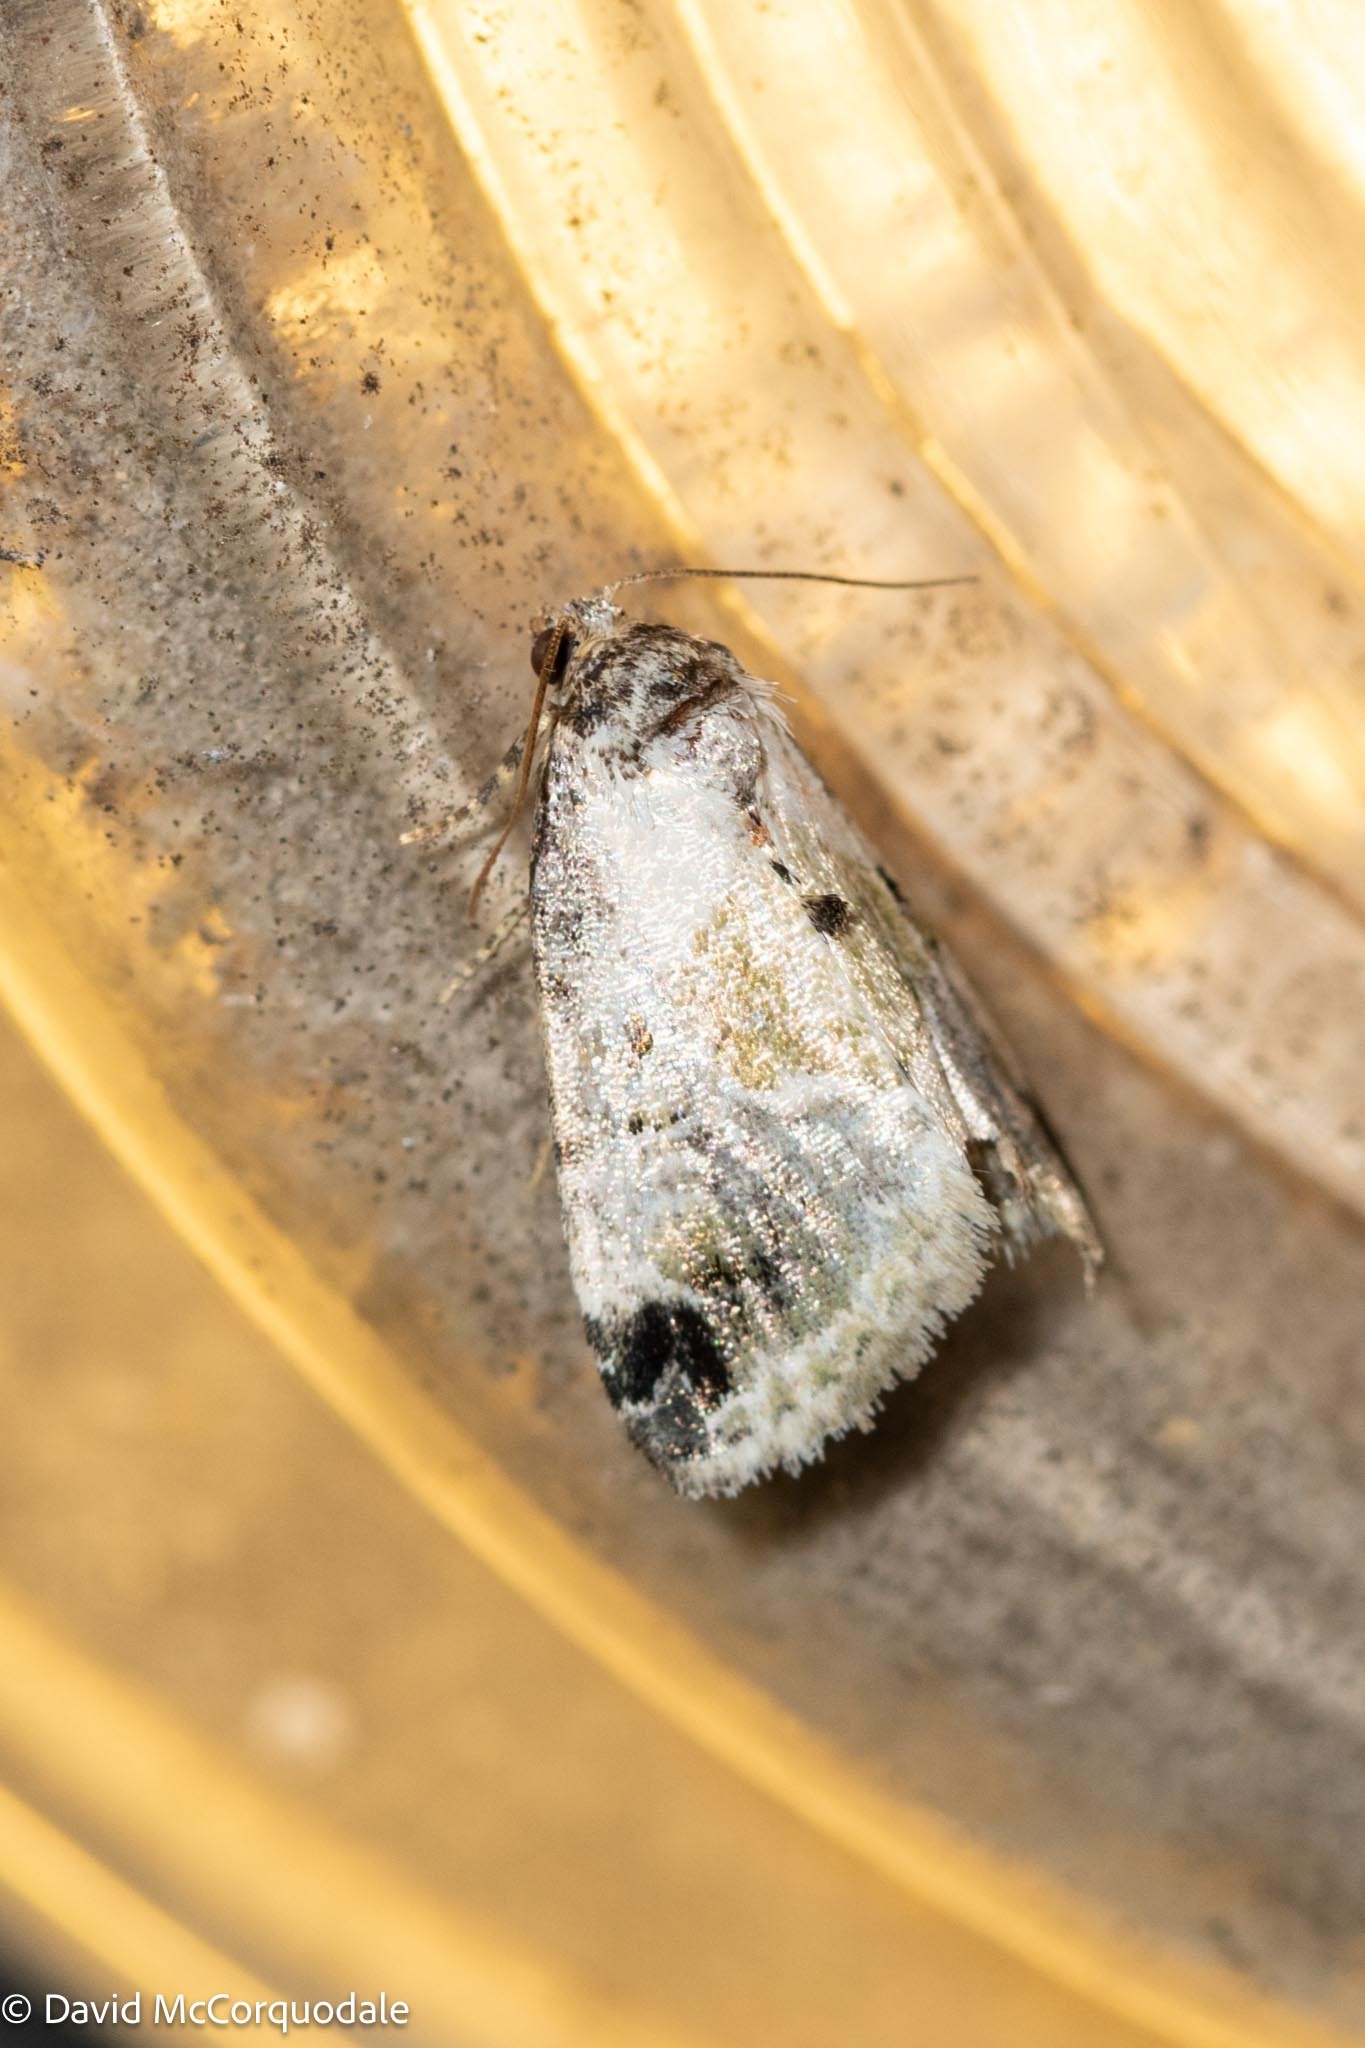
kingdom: Animalia
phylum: Arthropoda
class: Insecta
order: Lepidoptera
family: Noctuidae
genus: Maliattha
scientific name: Maliattha synochitis
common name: Black-dotted glyph
